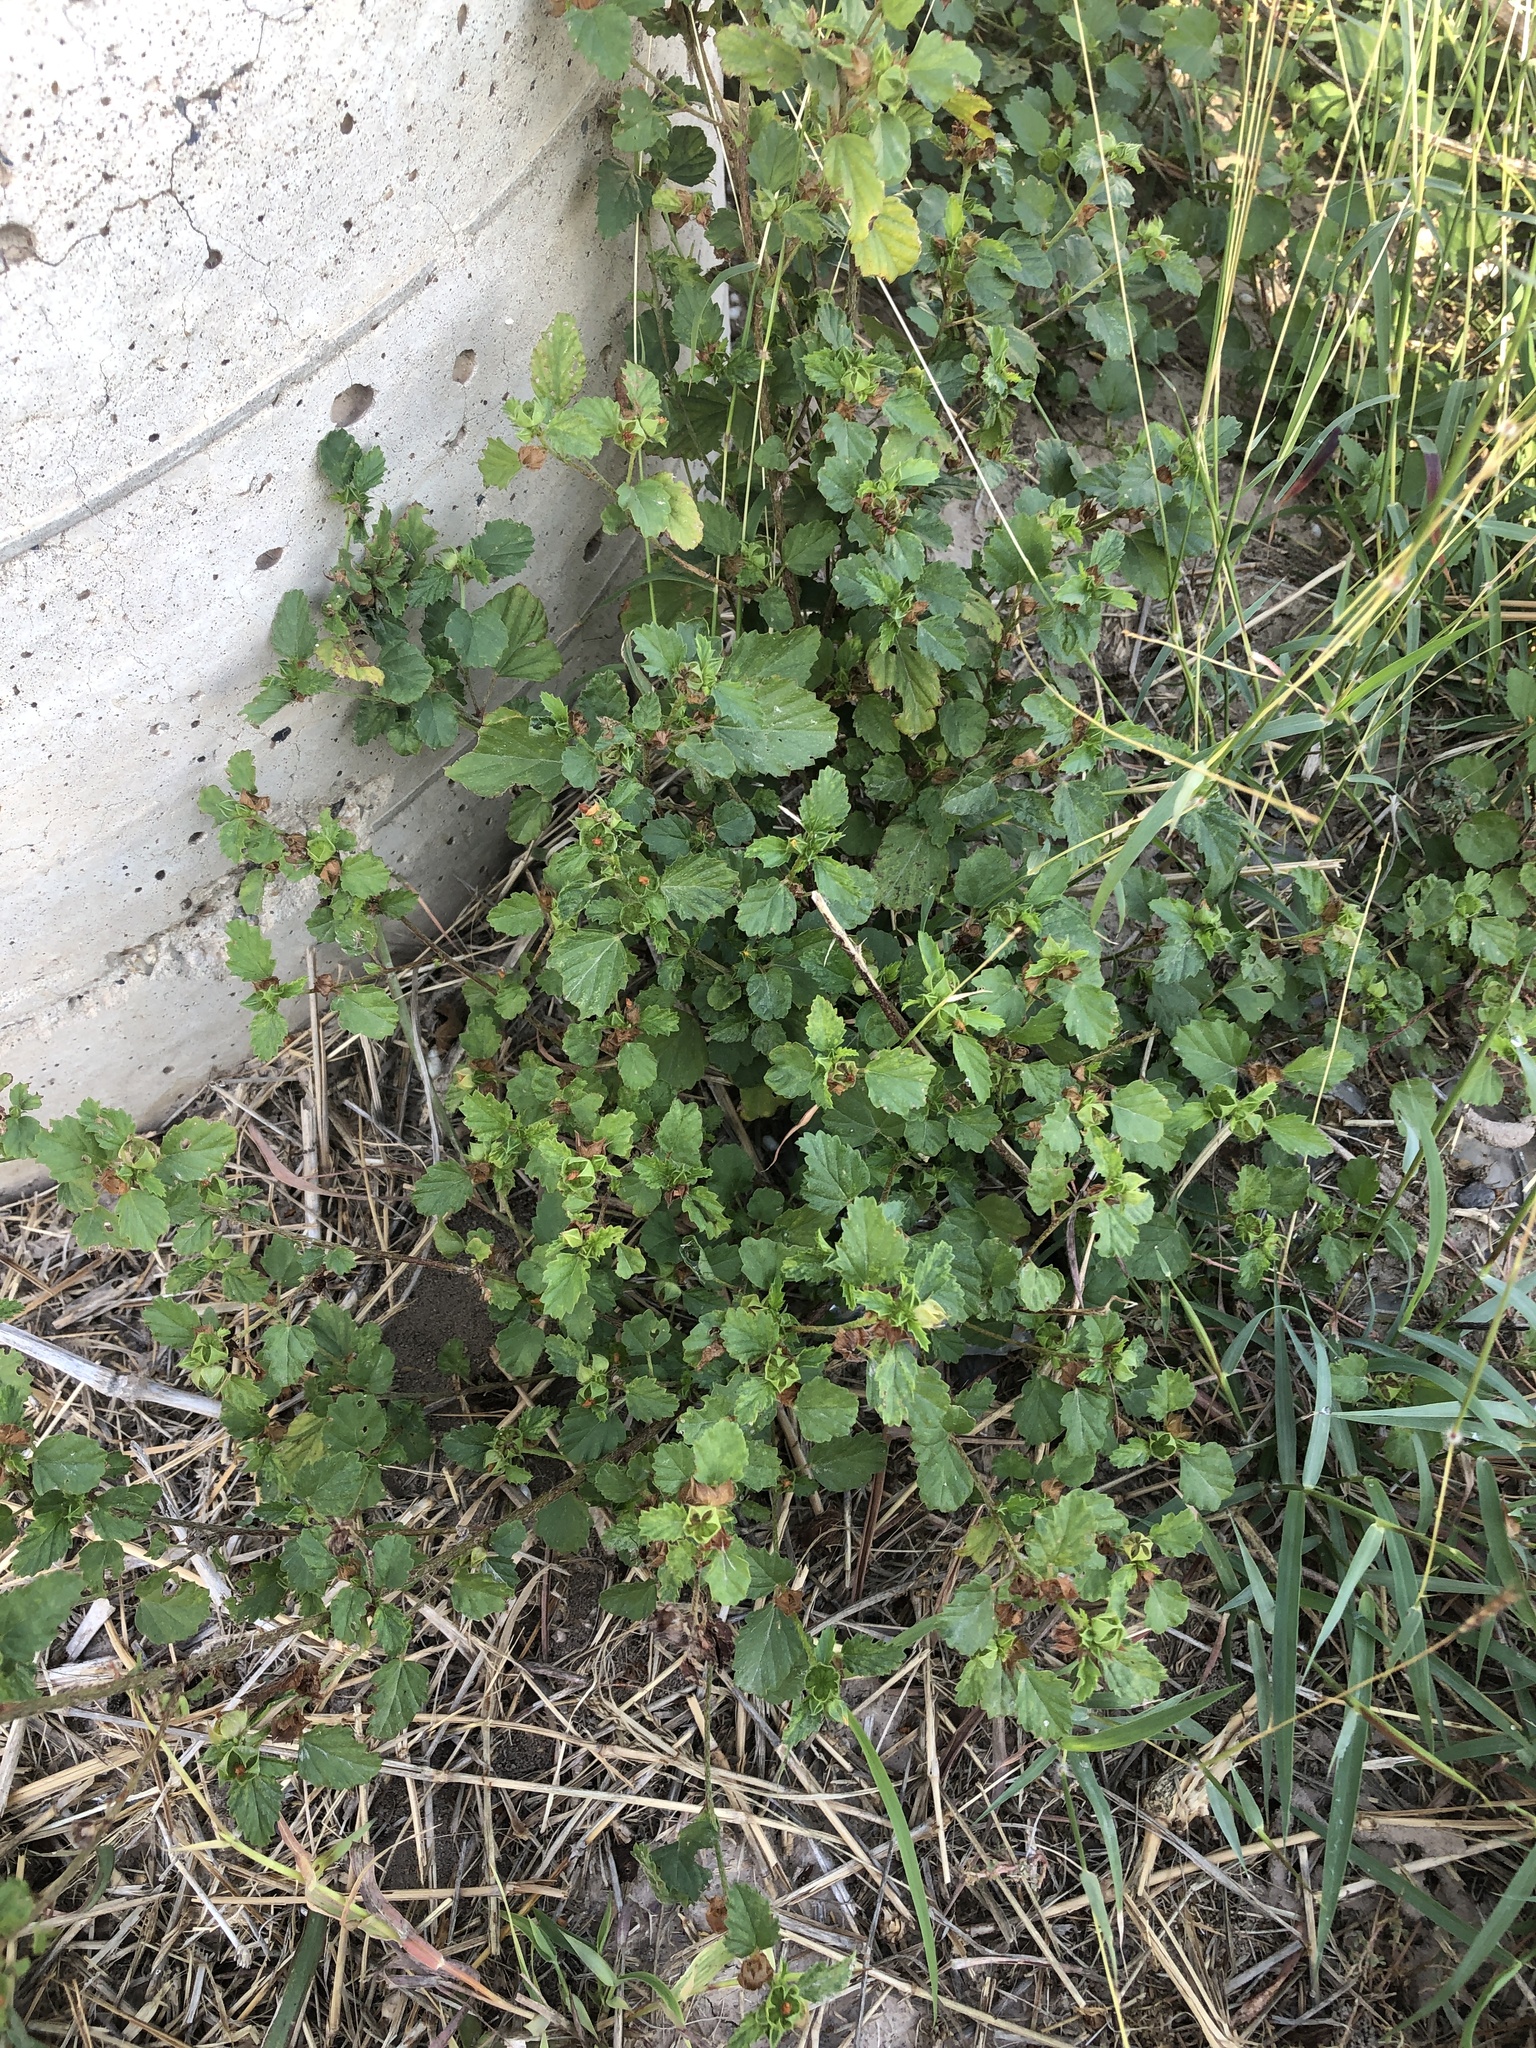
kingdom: Plantae
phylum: Tracheophyta
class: Magnoliopsida
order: Malvales
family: Malvaceae
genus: Malvastrum
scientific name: Malvastrum coromandelianum
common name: Threelobe false mallow
